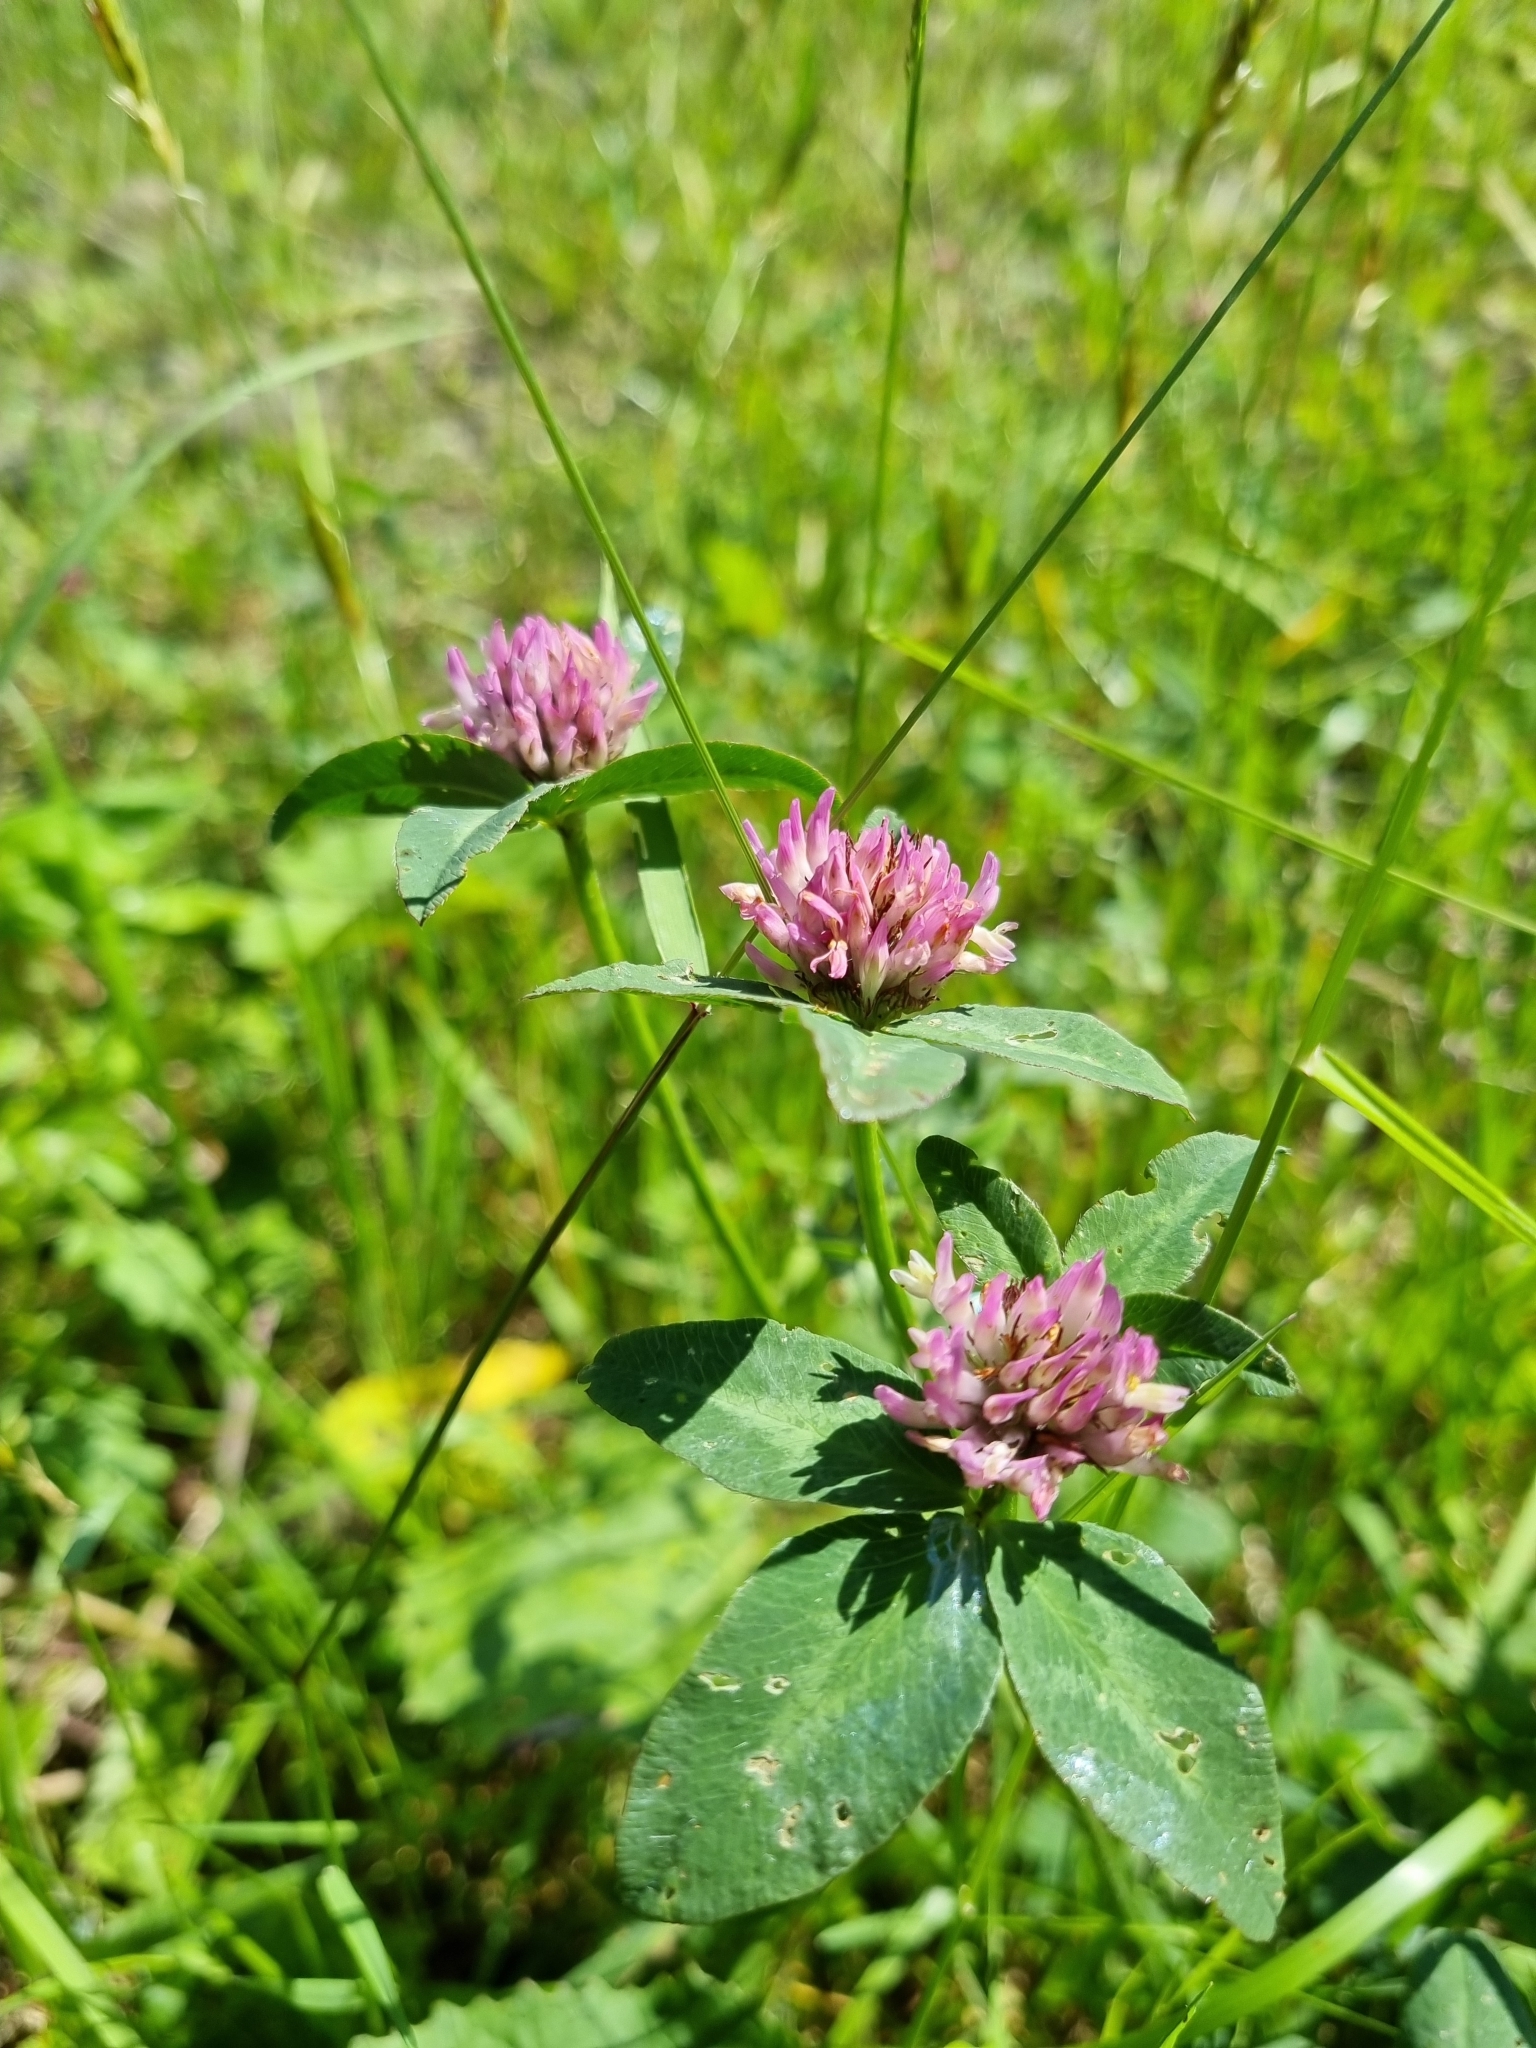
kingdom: Plantae
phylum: Tracheophyta
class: Magnoliopsida
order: Fabales
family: Fabaceae
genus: Trifolium
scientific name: Trifolium pratense
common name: Red clover
